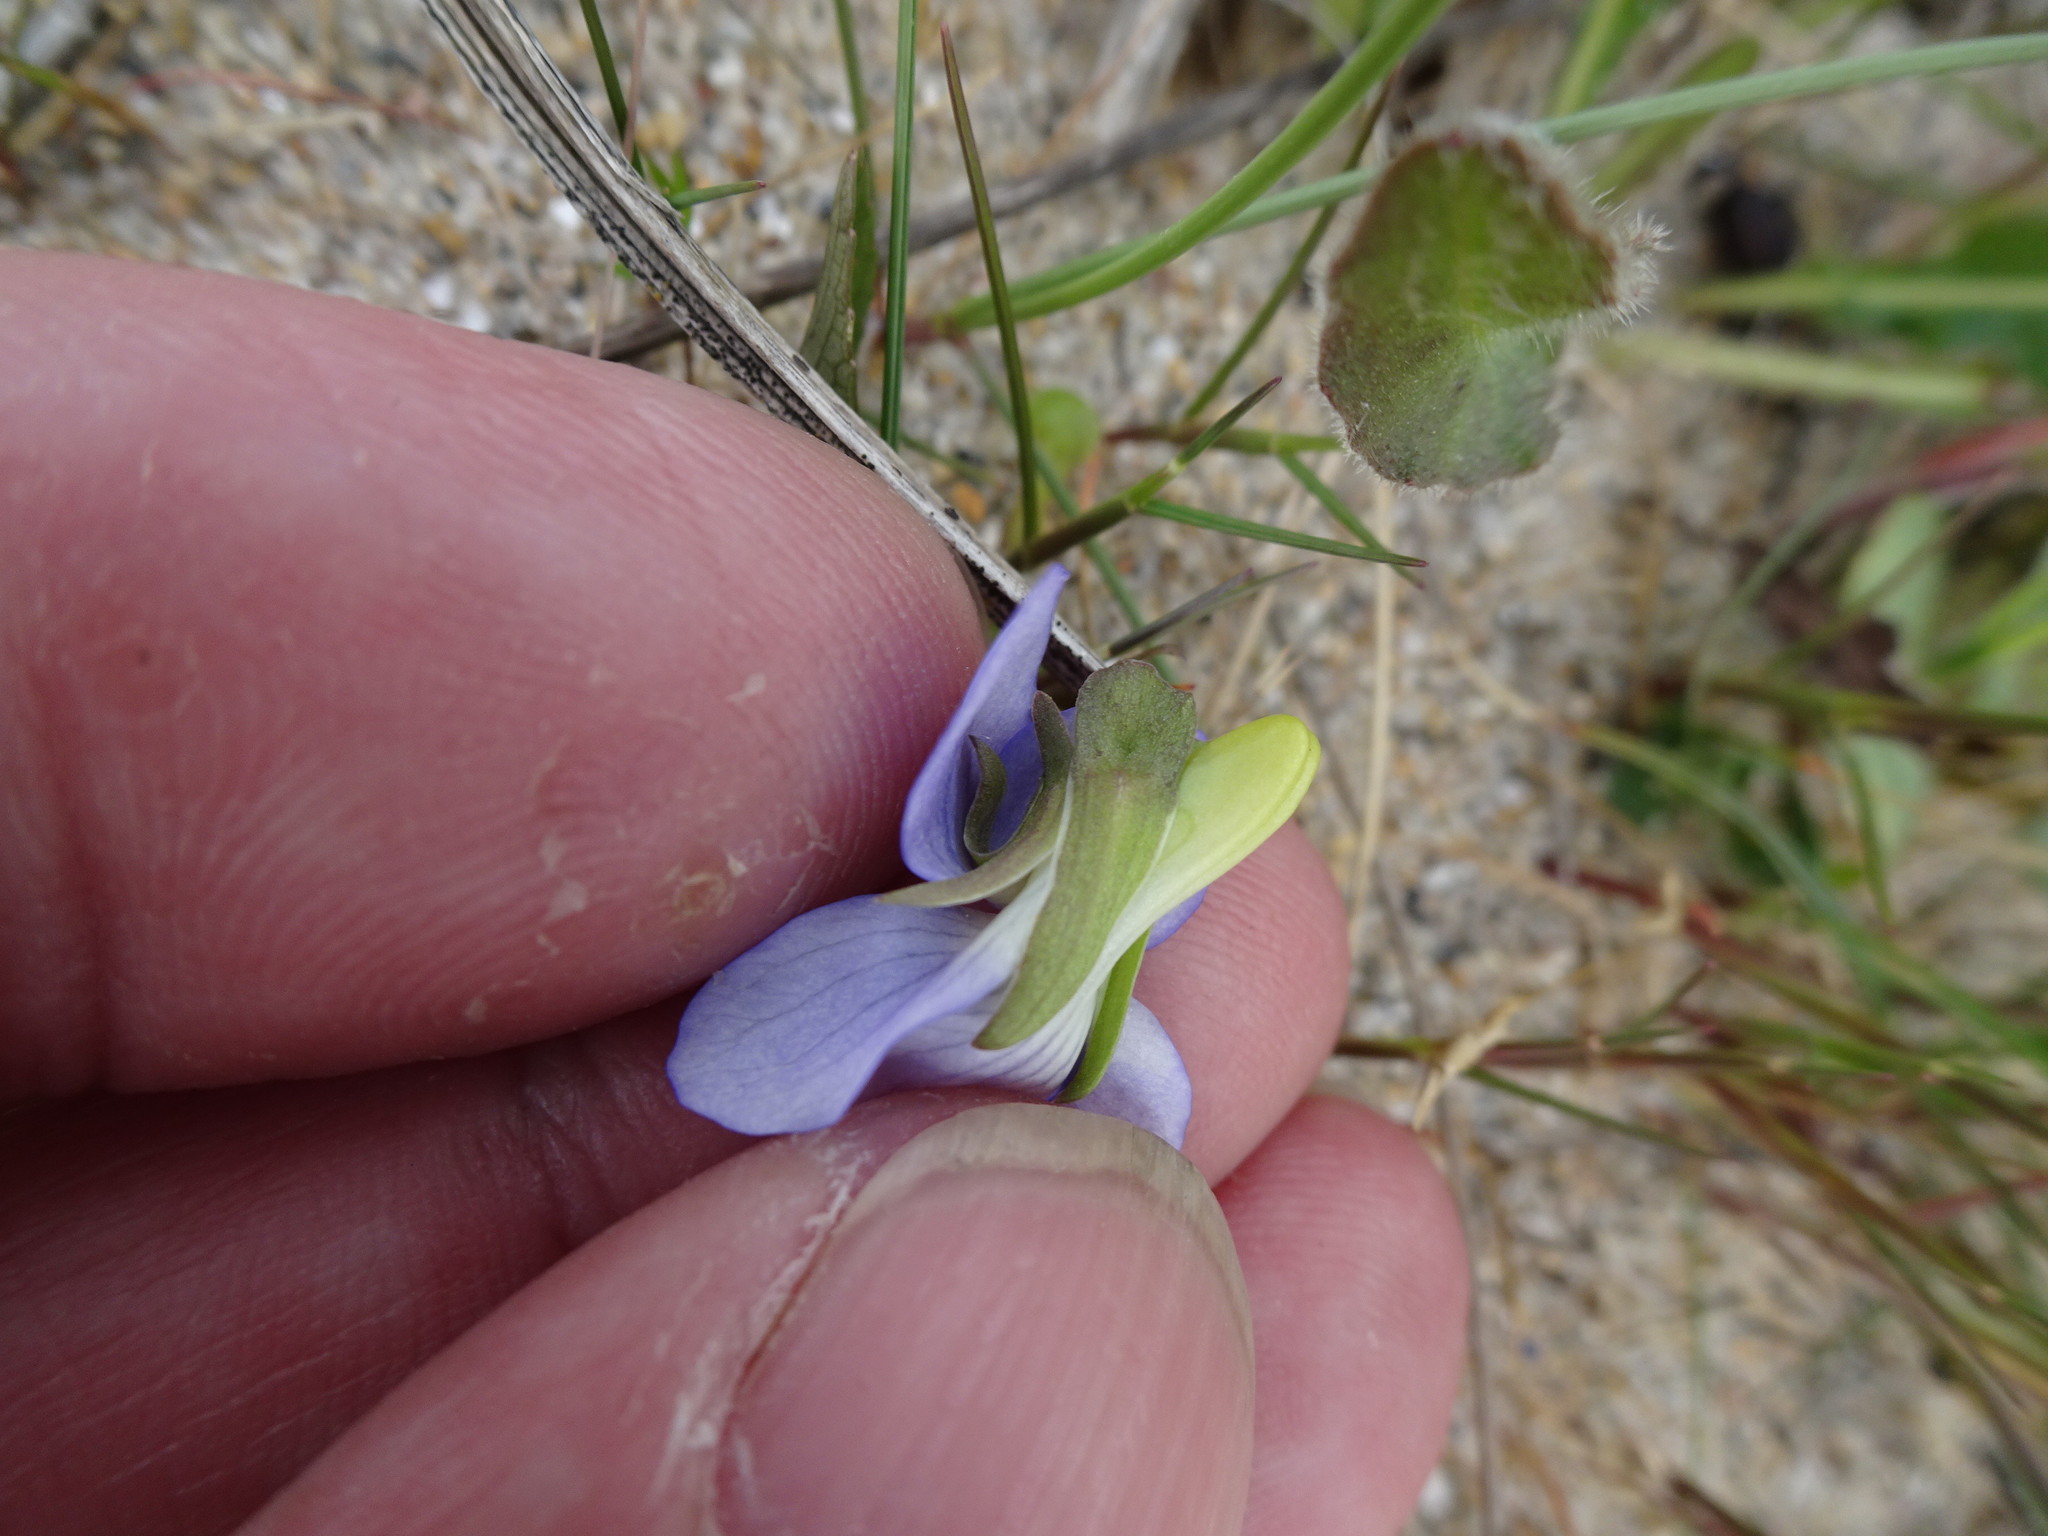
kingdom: Plantae
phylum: Tracheophyta
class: Magnoliopsida
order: Malpighiales
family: Violaceae
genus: Viola
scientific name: Viola canina
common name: Heath dog-violet
